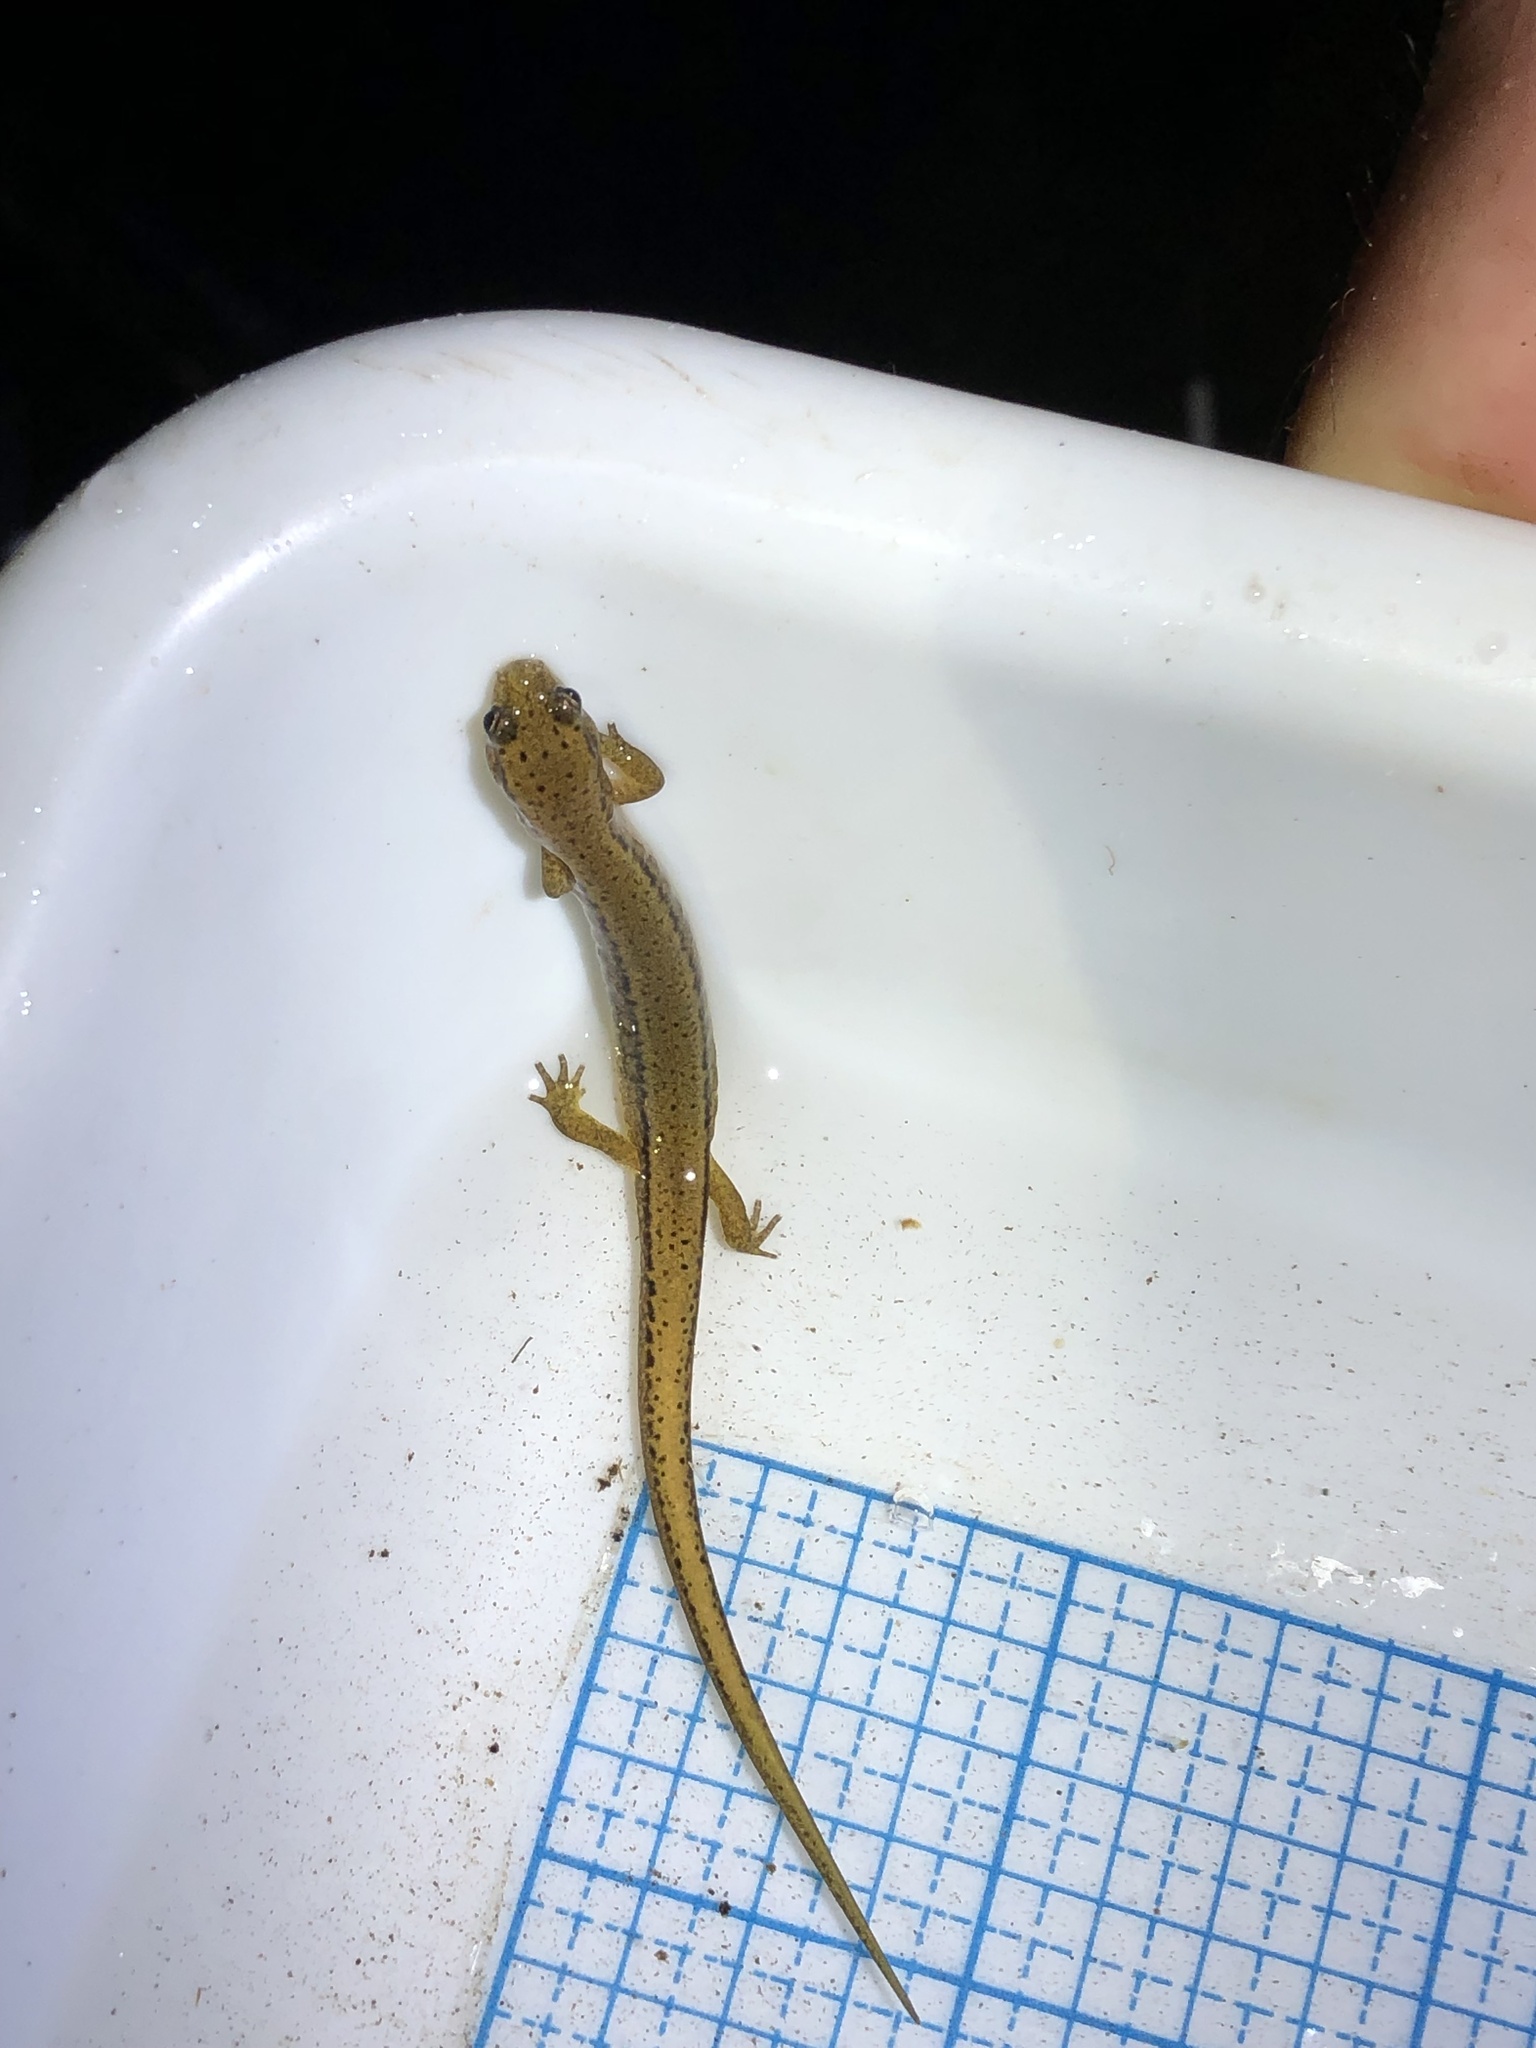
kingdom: Animalia
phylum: Chordata
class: Amphibia
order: Caudata
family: Plethodontidae
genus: Eurycea
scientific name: Eurycea bislineata
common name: Northern two-lined salamander
